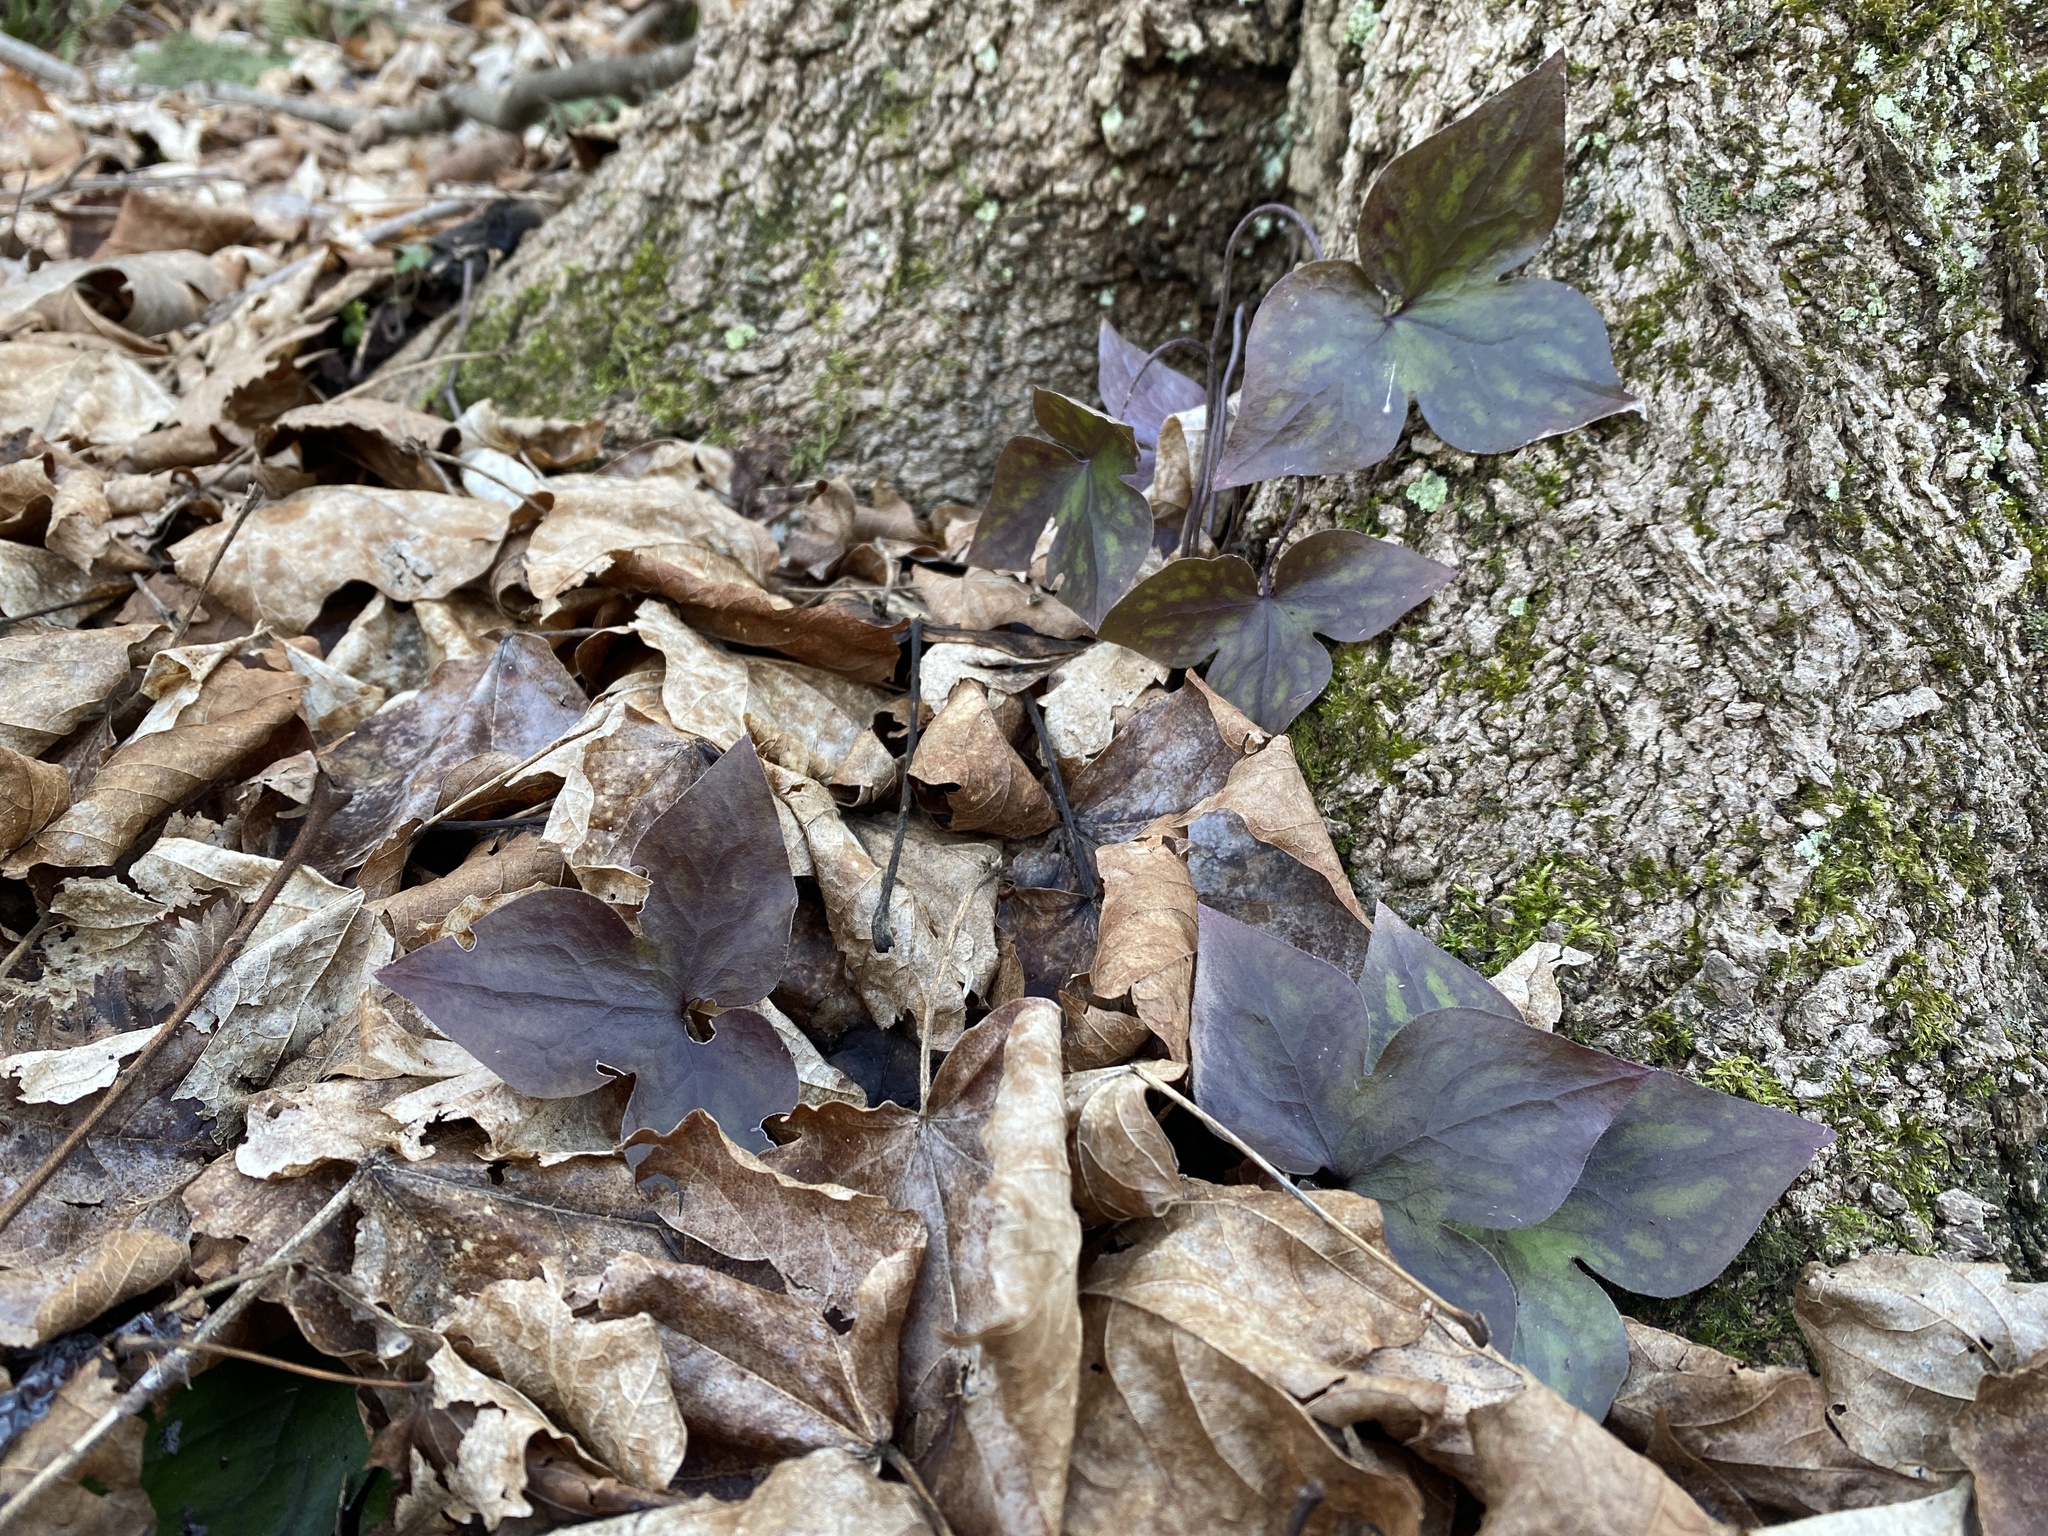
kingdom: Plantae
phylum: Tracheophyta
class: Magnoliopsida
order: Ranunculales
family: Ranunculaceae
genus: Hepatica
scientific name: Hepatica acutiloba
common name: Sharp-lobed hepatica
